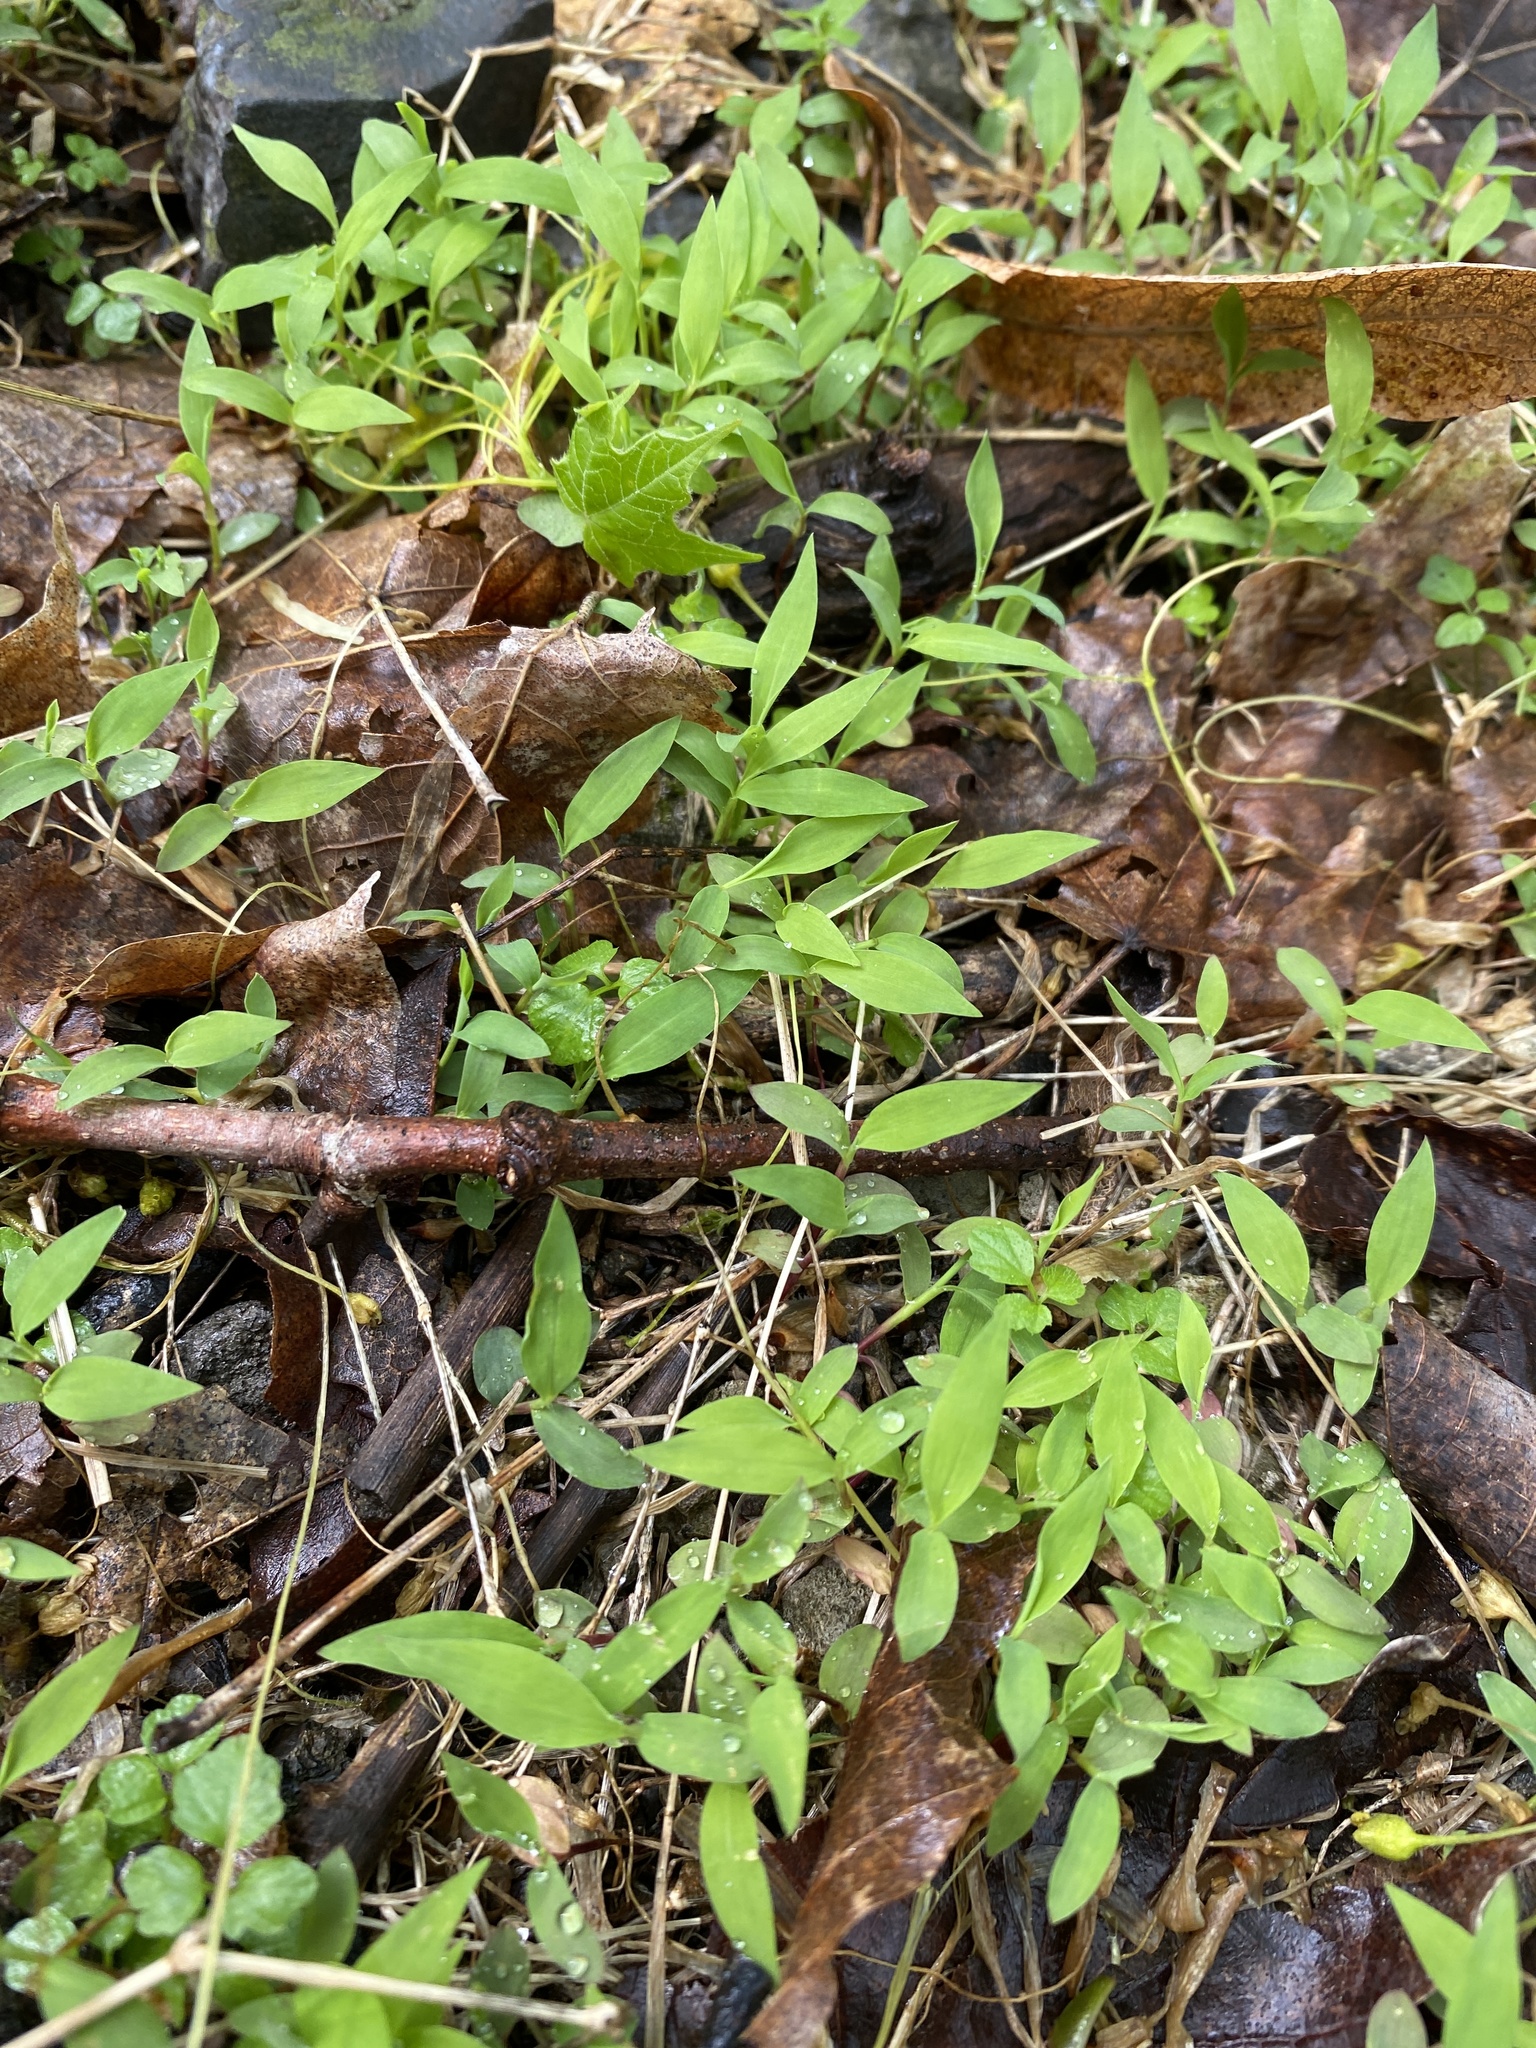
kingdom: Plantae
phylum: Tracheophyta
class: Liliopsida
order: Poales
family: Poaceae
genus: Microstegium
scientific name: Microstegium vimineum
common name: Japanese stiltgrass
